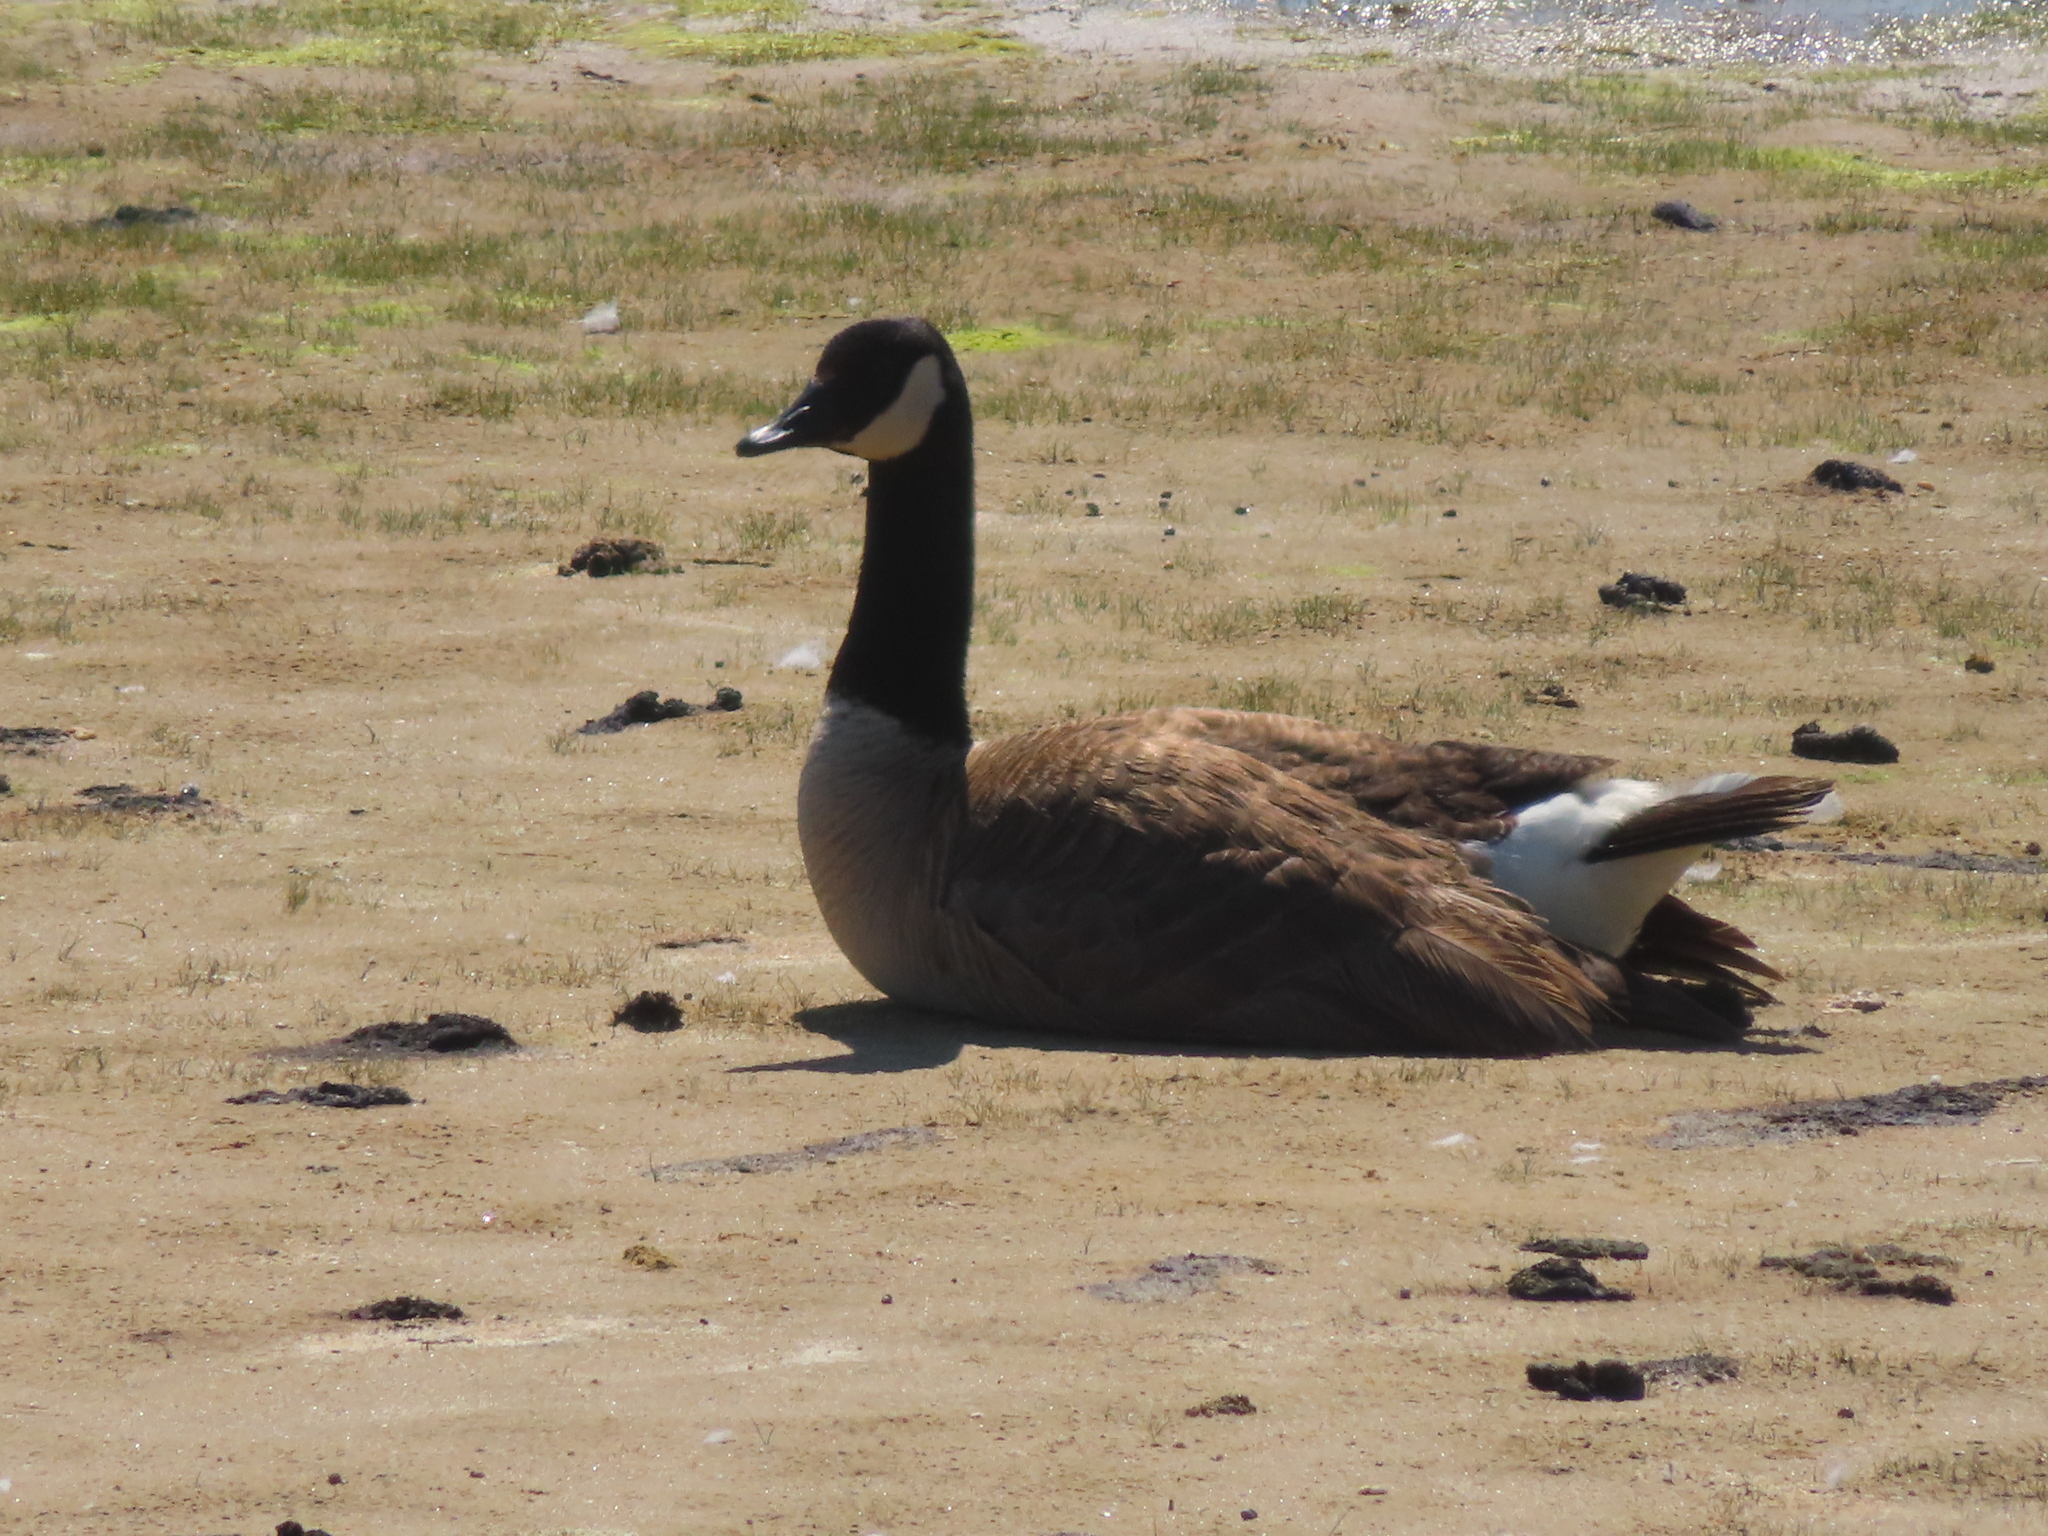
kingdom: Animalia
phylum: Chordata
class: Aves
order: Anseriformes
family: Anatidae
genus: Branta
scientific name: Branta canadensis
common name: Canada goose
